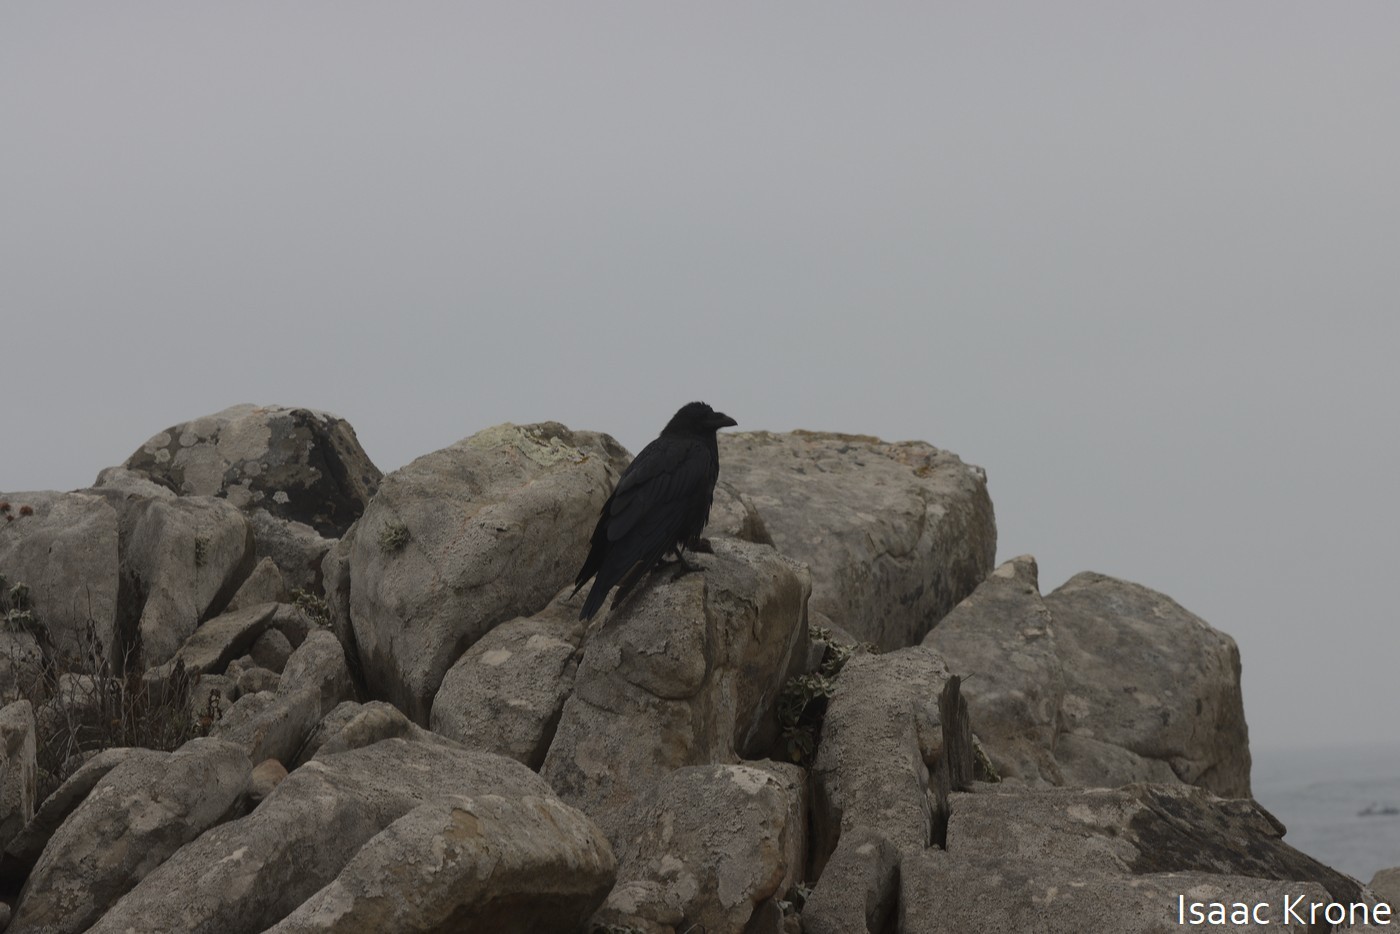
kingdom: Animalia
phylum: Chordata
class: Aves
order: Passeriformes
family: Corvidae
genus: Corvus
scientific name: Corvus corax
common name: Common raven
